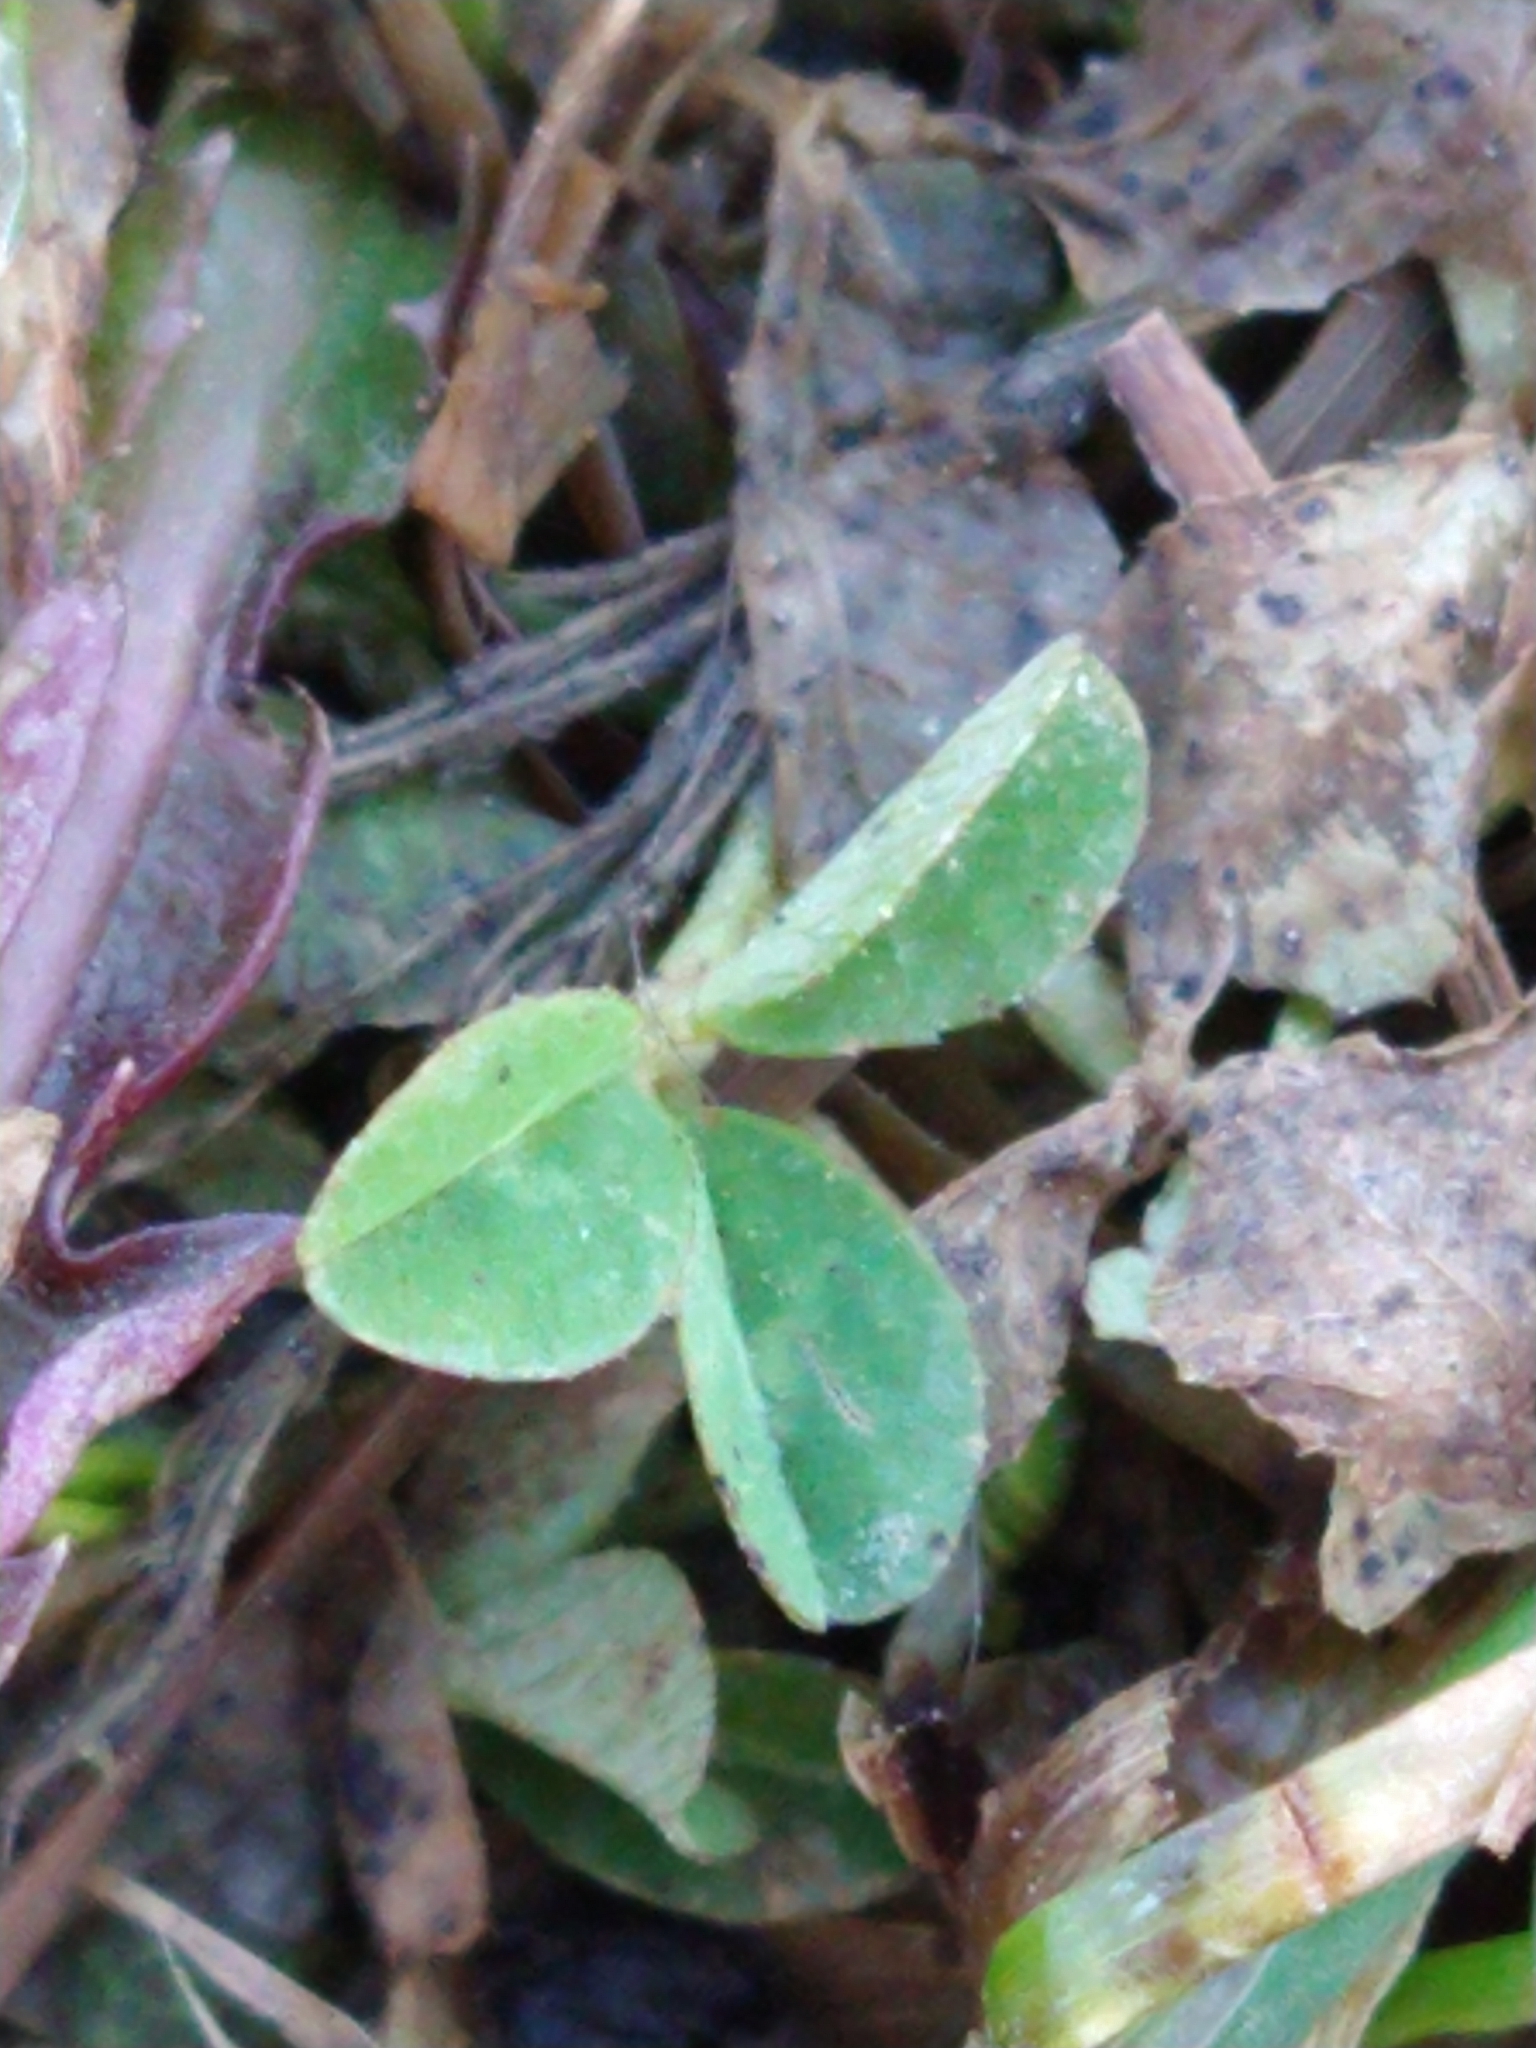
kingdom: Plantae
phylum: Tracheophyta
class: Magnoliopsida
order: Fabales
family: Fabaceae
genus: Trifolium
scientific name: Trifolium repens
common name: White clover
